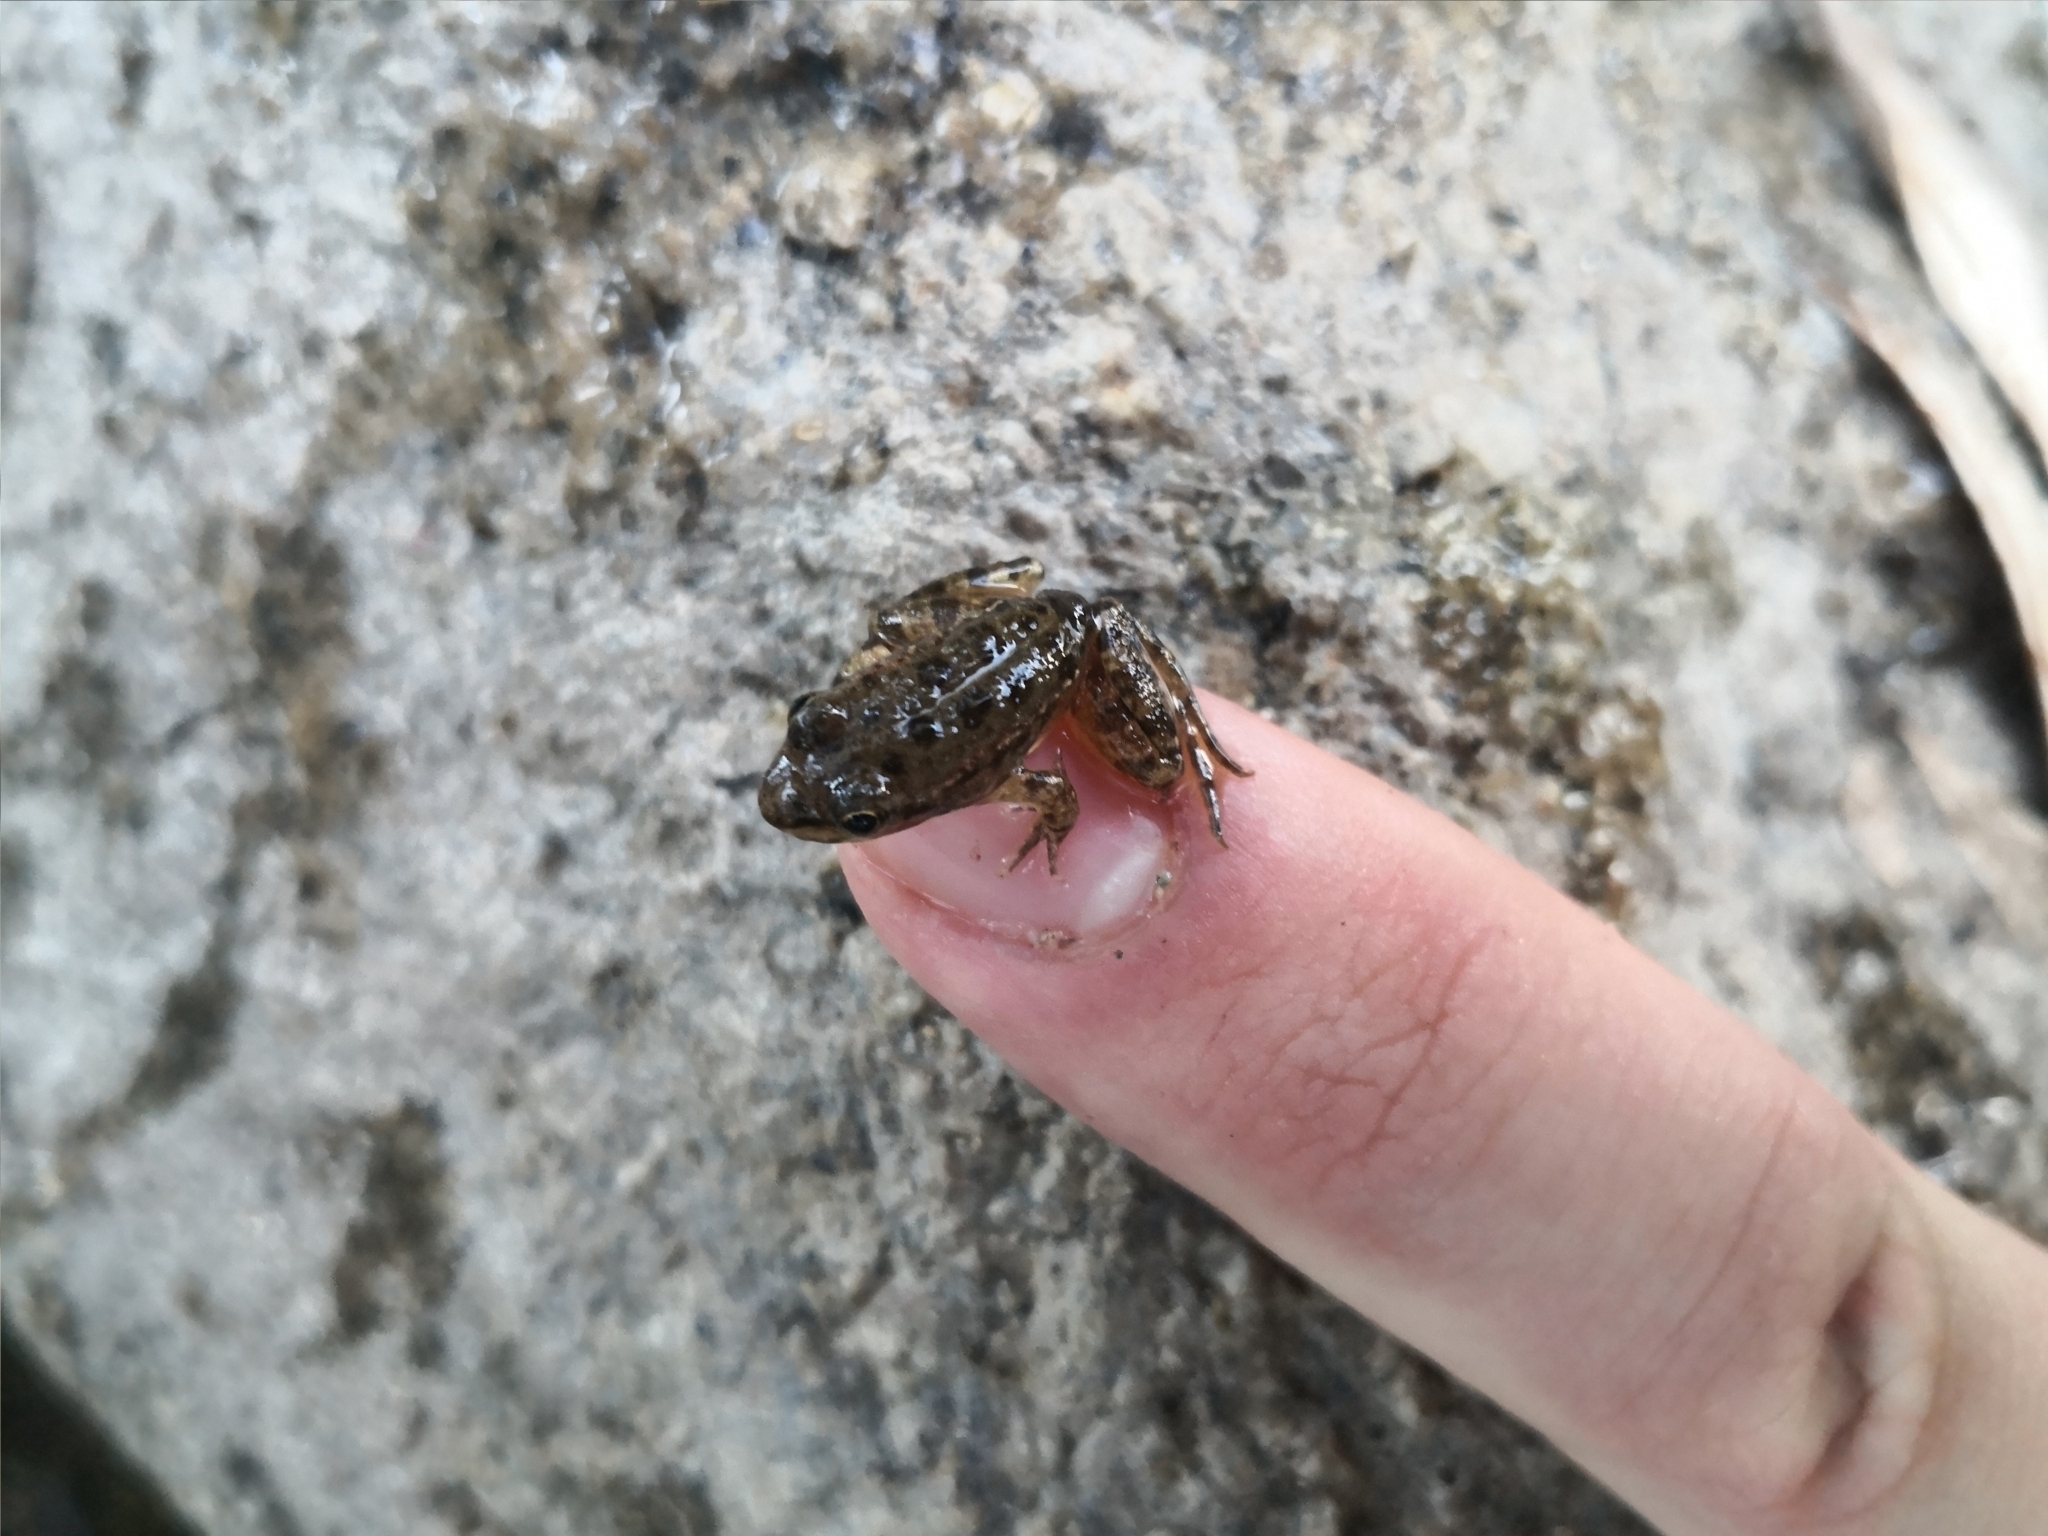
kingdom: Animalia
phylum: Chordata
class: Amphibia
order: Anura
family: Ranidae
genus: Pelophylax
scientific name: Pelophylax perezi
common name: Perez's frog
